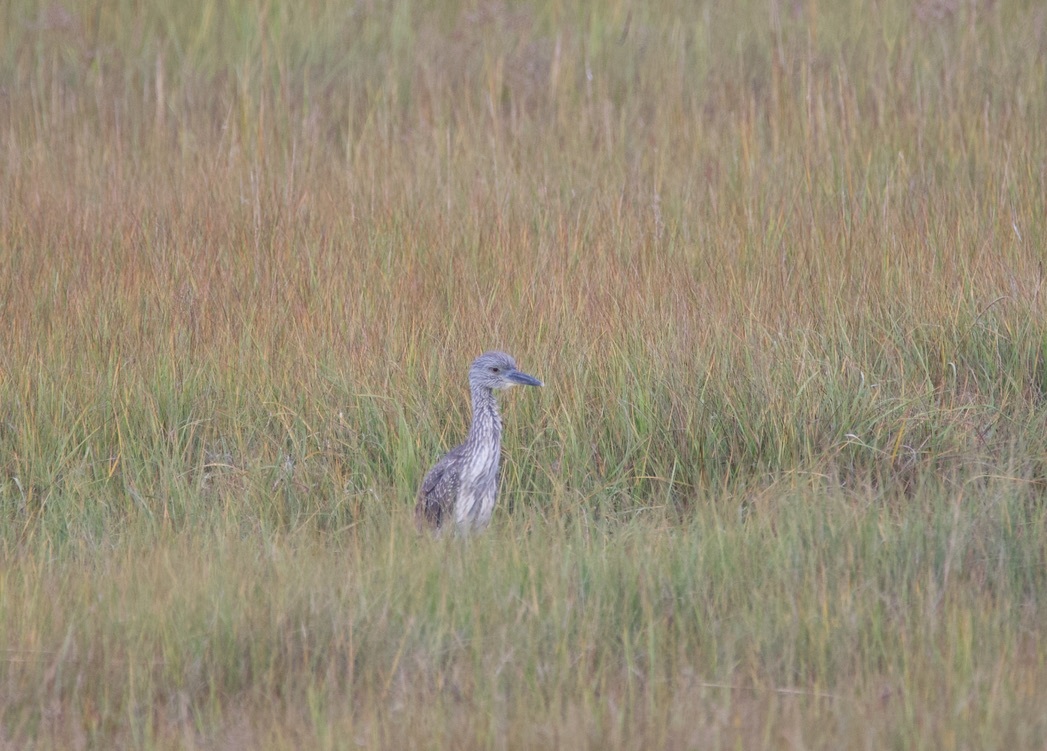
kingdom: Animalia
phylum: Chordata
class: Aves
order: Pelecaniformes
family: Ardeidae
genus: Nyctanassa
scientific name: Nyctanassa violacea
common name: Yellow-crowned night heron
